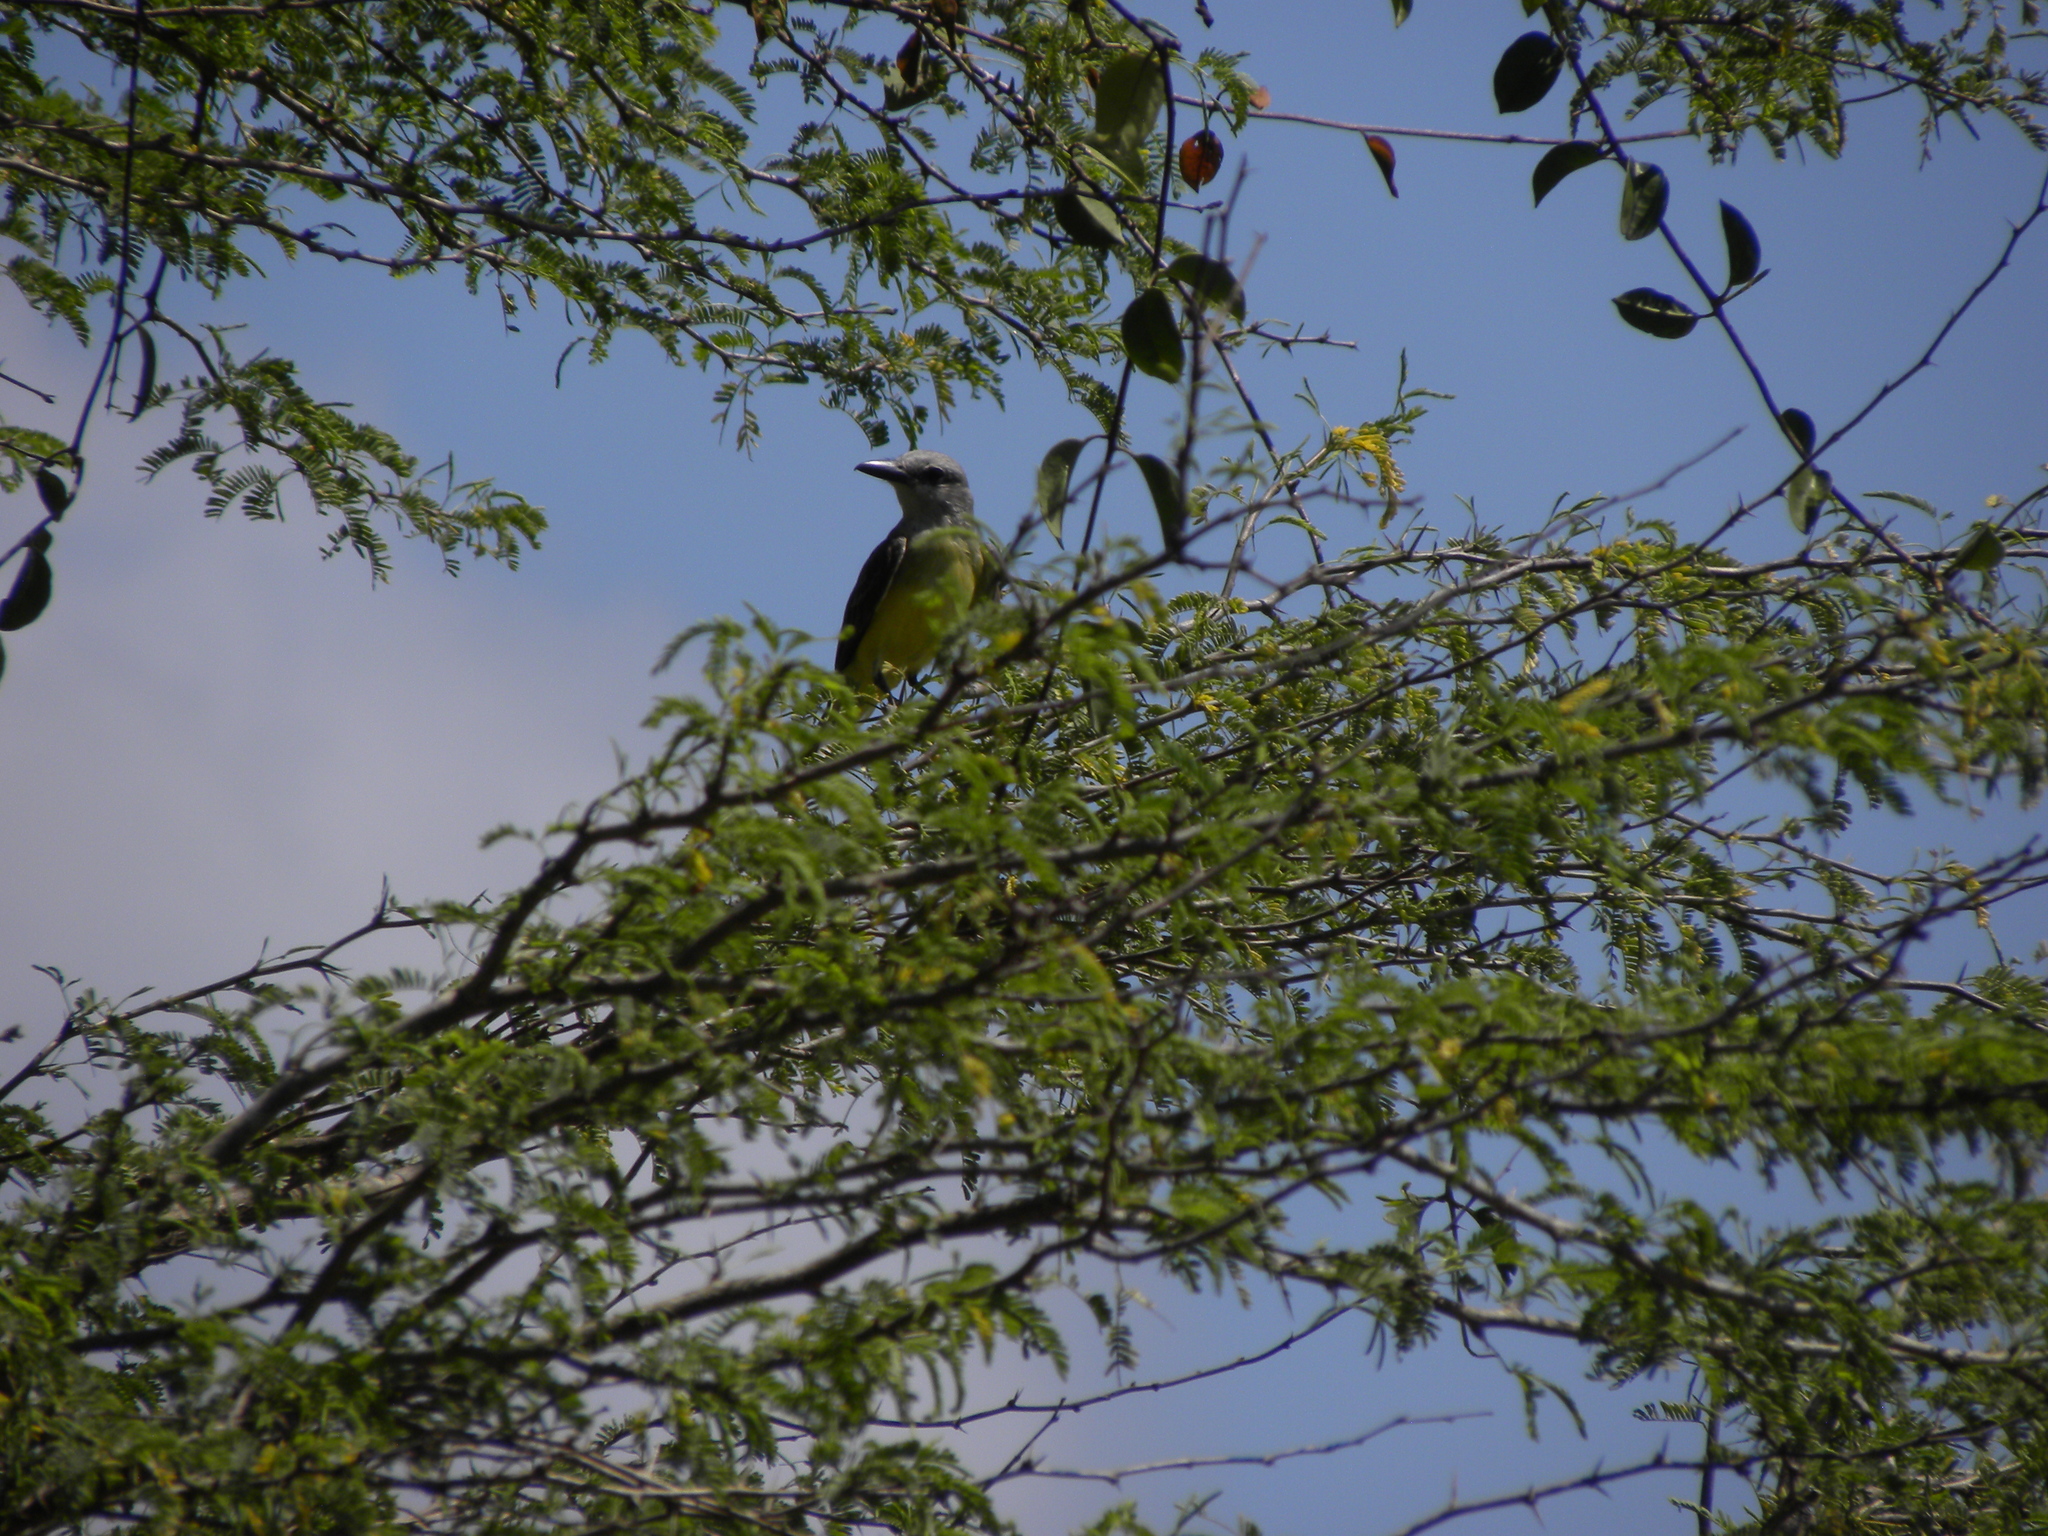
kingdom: Animalia
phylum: Chordata
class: Aves
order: Passeriformes
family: Tyrannidae
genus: Tyrannus
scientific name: Tyrannus melancholicus
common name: Tropical kingbird
